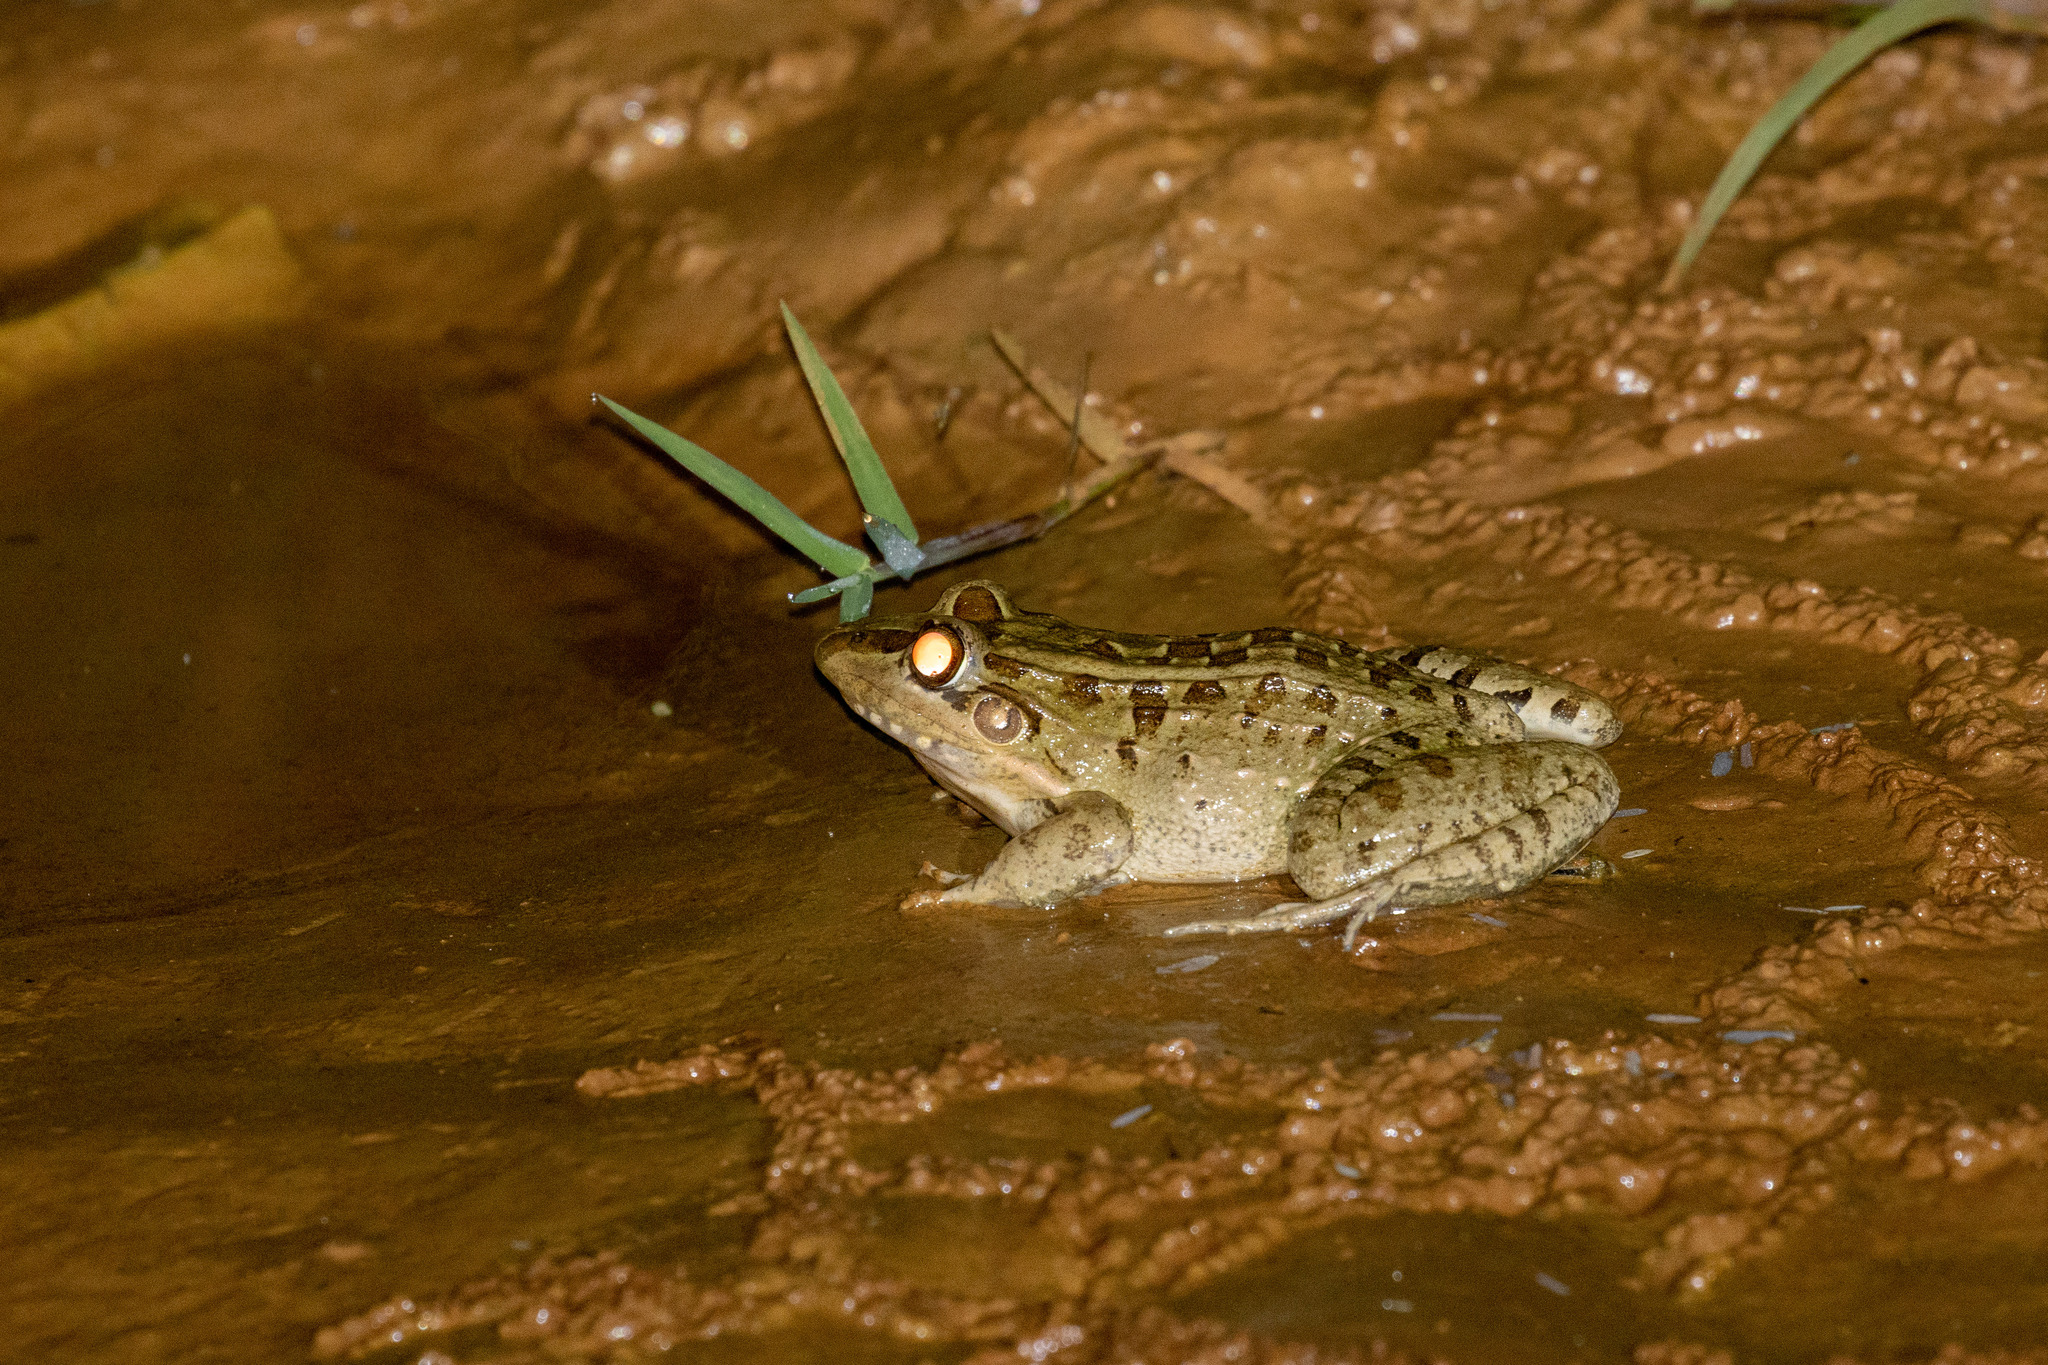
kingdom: Animalia
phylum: Chordata
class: Amphibia
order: Anura
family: Leptodactylidae
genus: Leptodactylus
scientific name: Leptodactylus macrosternum
